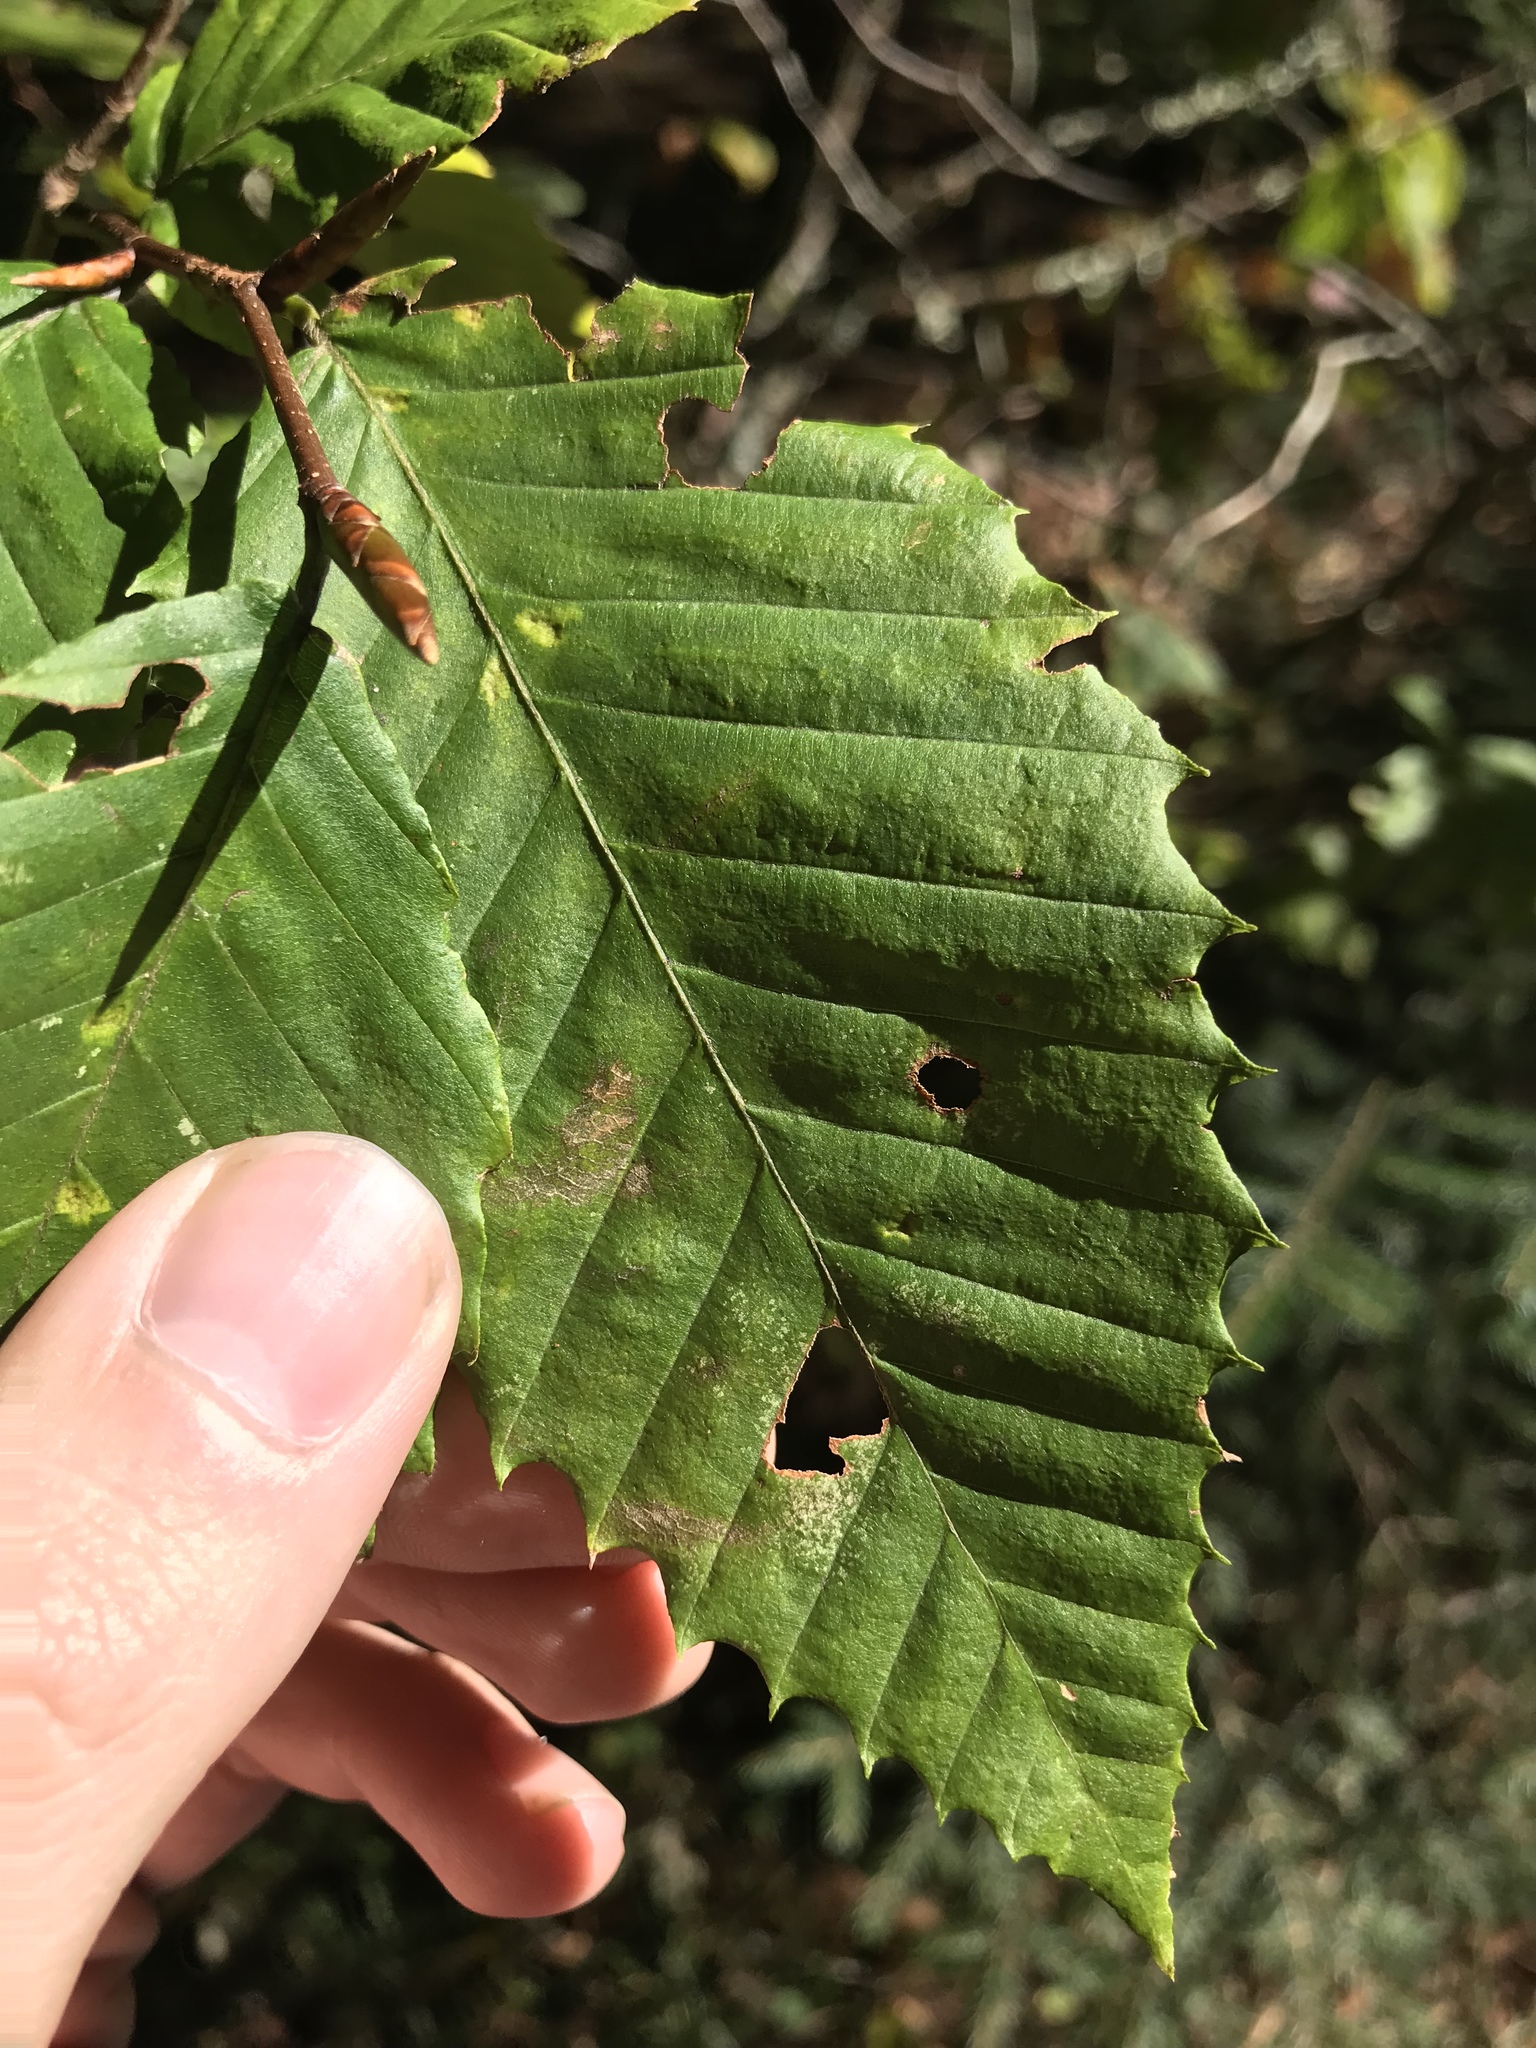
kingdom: Plantae
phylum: Tracheophyta
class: Magnoliopsida
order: Fagales
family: Fagaceae
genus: Fagus
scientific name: Fagus grandifolia
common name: American beech
